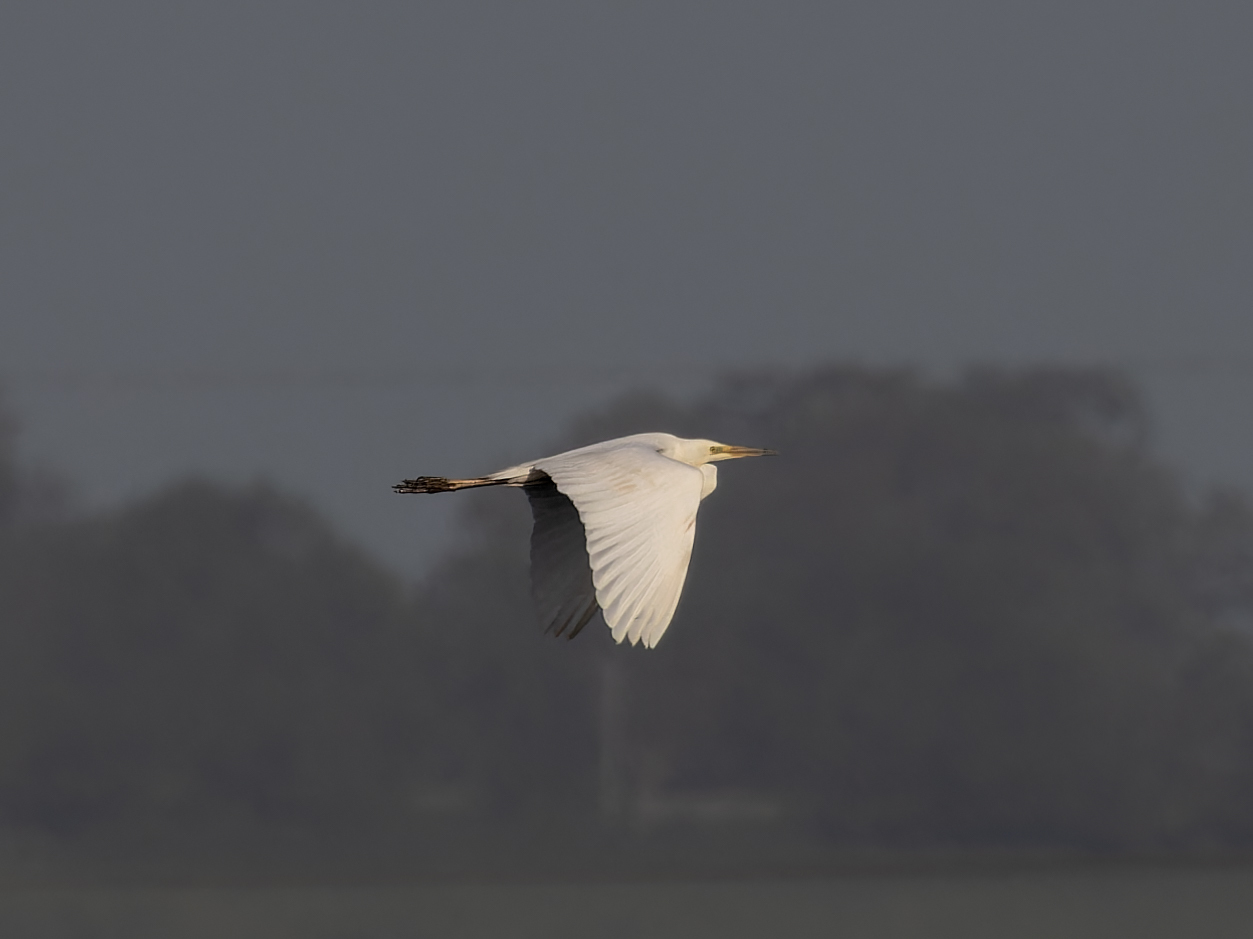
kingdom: Animalia
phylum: Chordata
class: Aves
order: Pelecaniformes
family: Ardeidae
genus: Ardea
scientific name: Ardea alba
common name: Great egret
